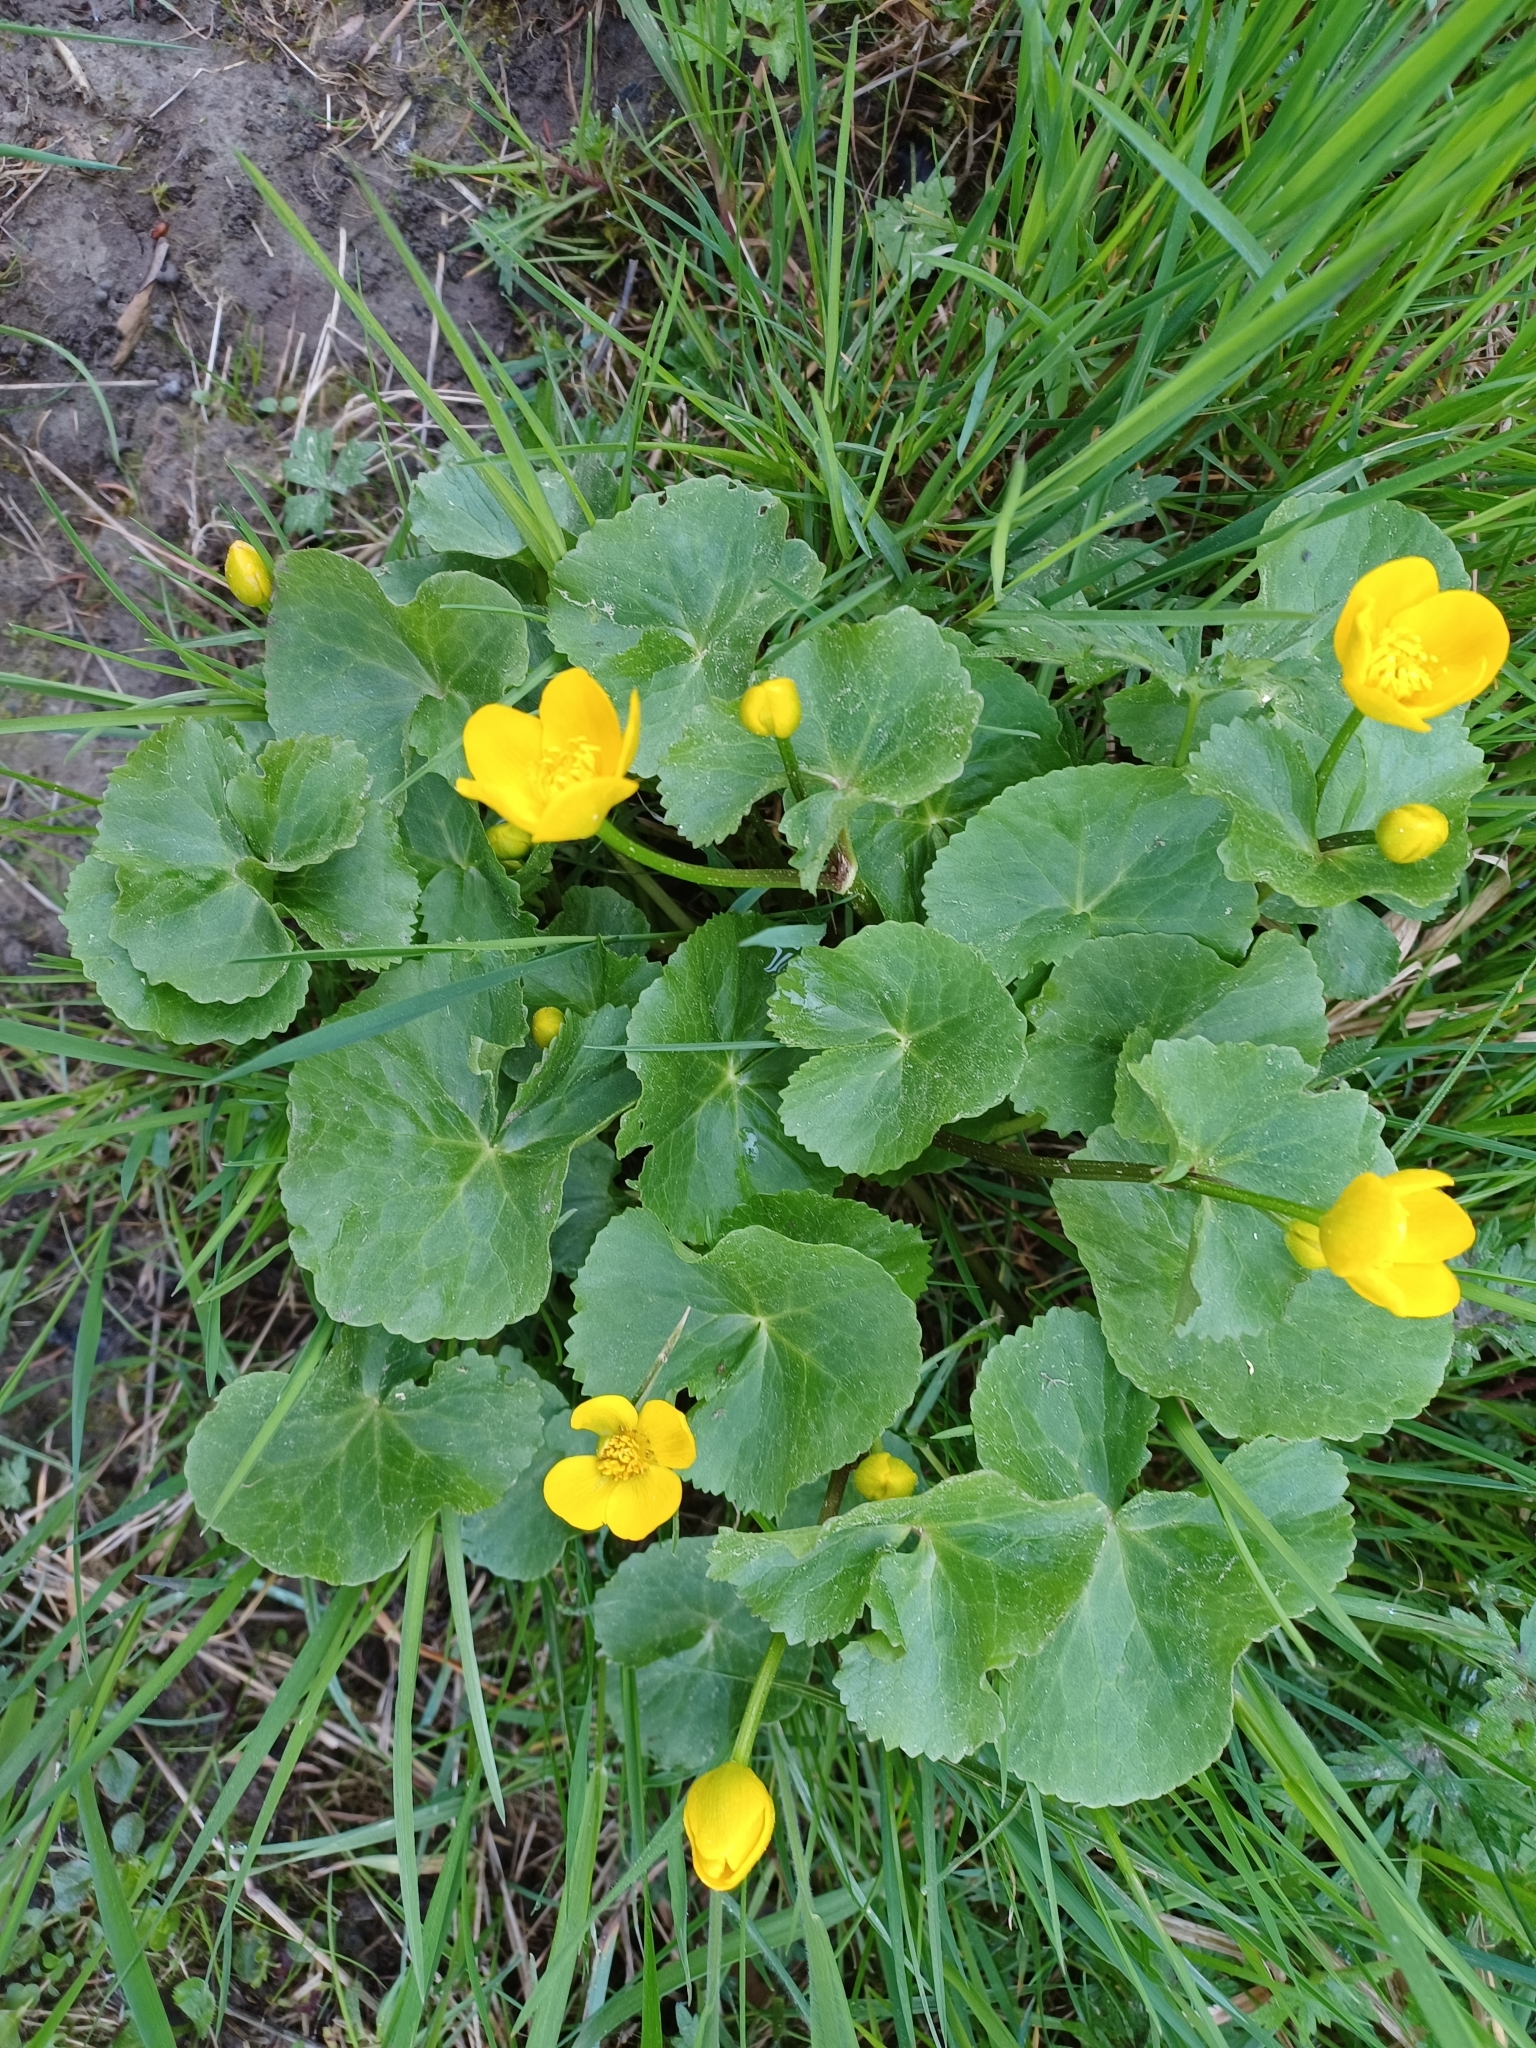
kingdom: Plantae
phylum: Tracheophyta
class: Magnoliopsida
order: Ranunculales
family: Ranunculaceae
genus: Caltha
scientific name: Caltha palustris
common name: Marsh marigold
